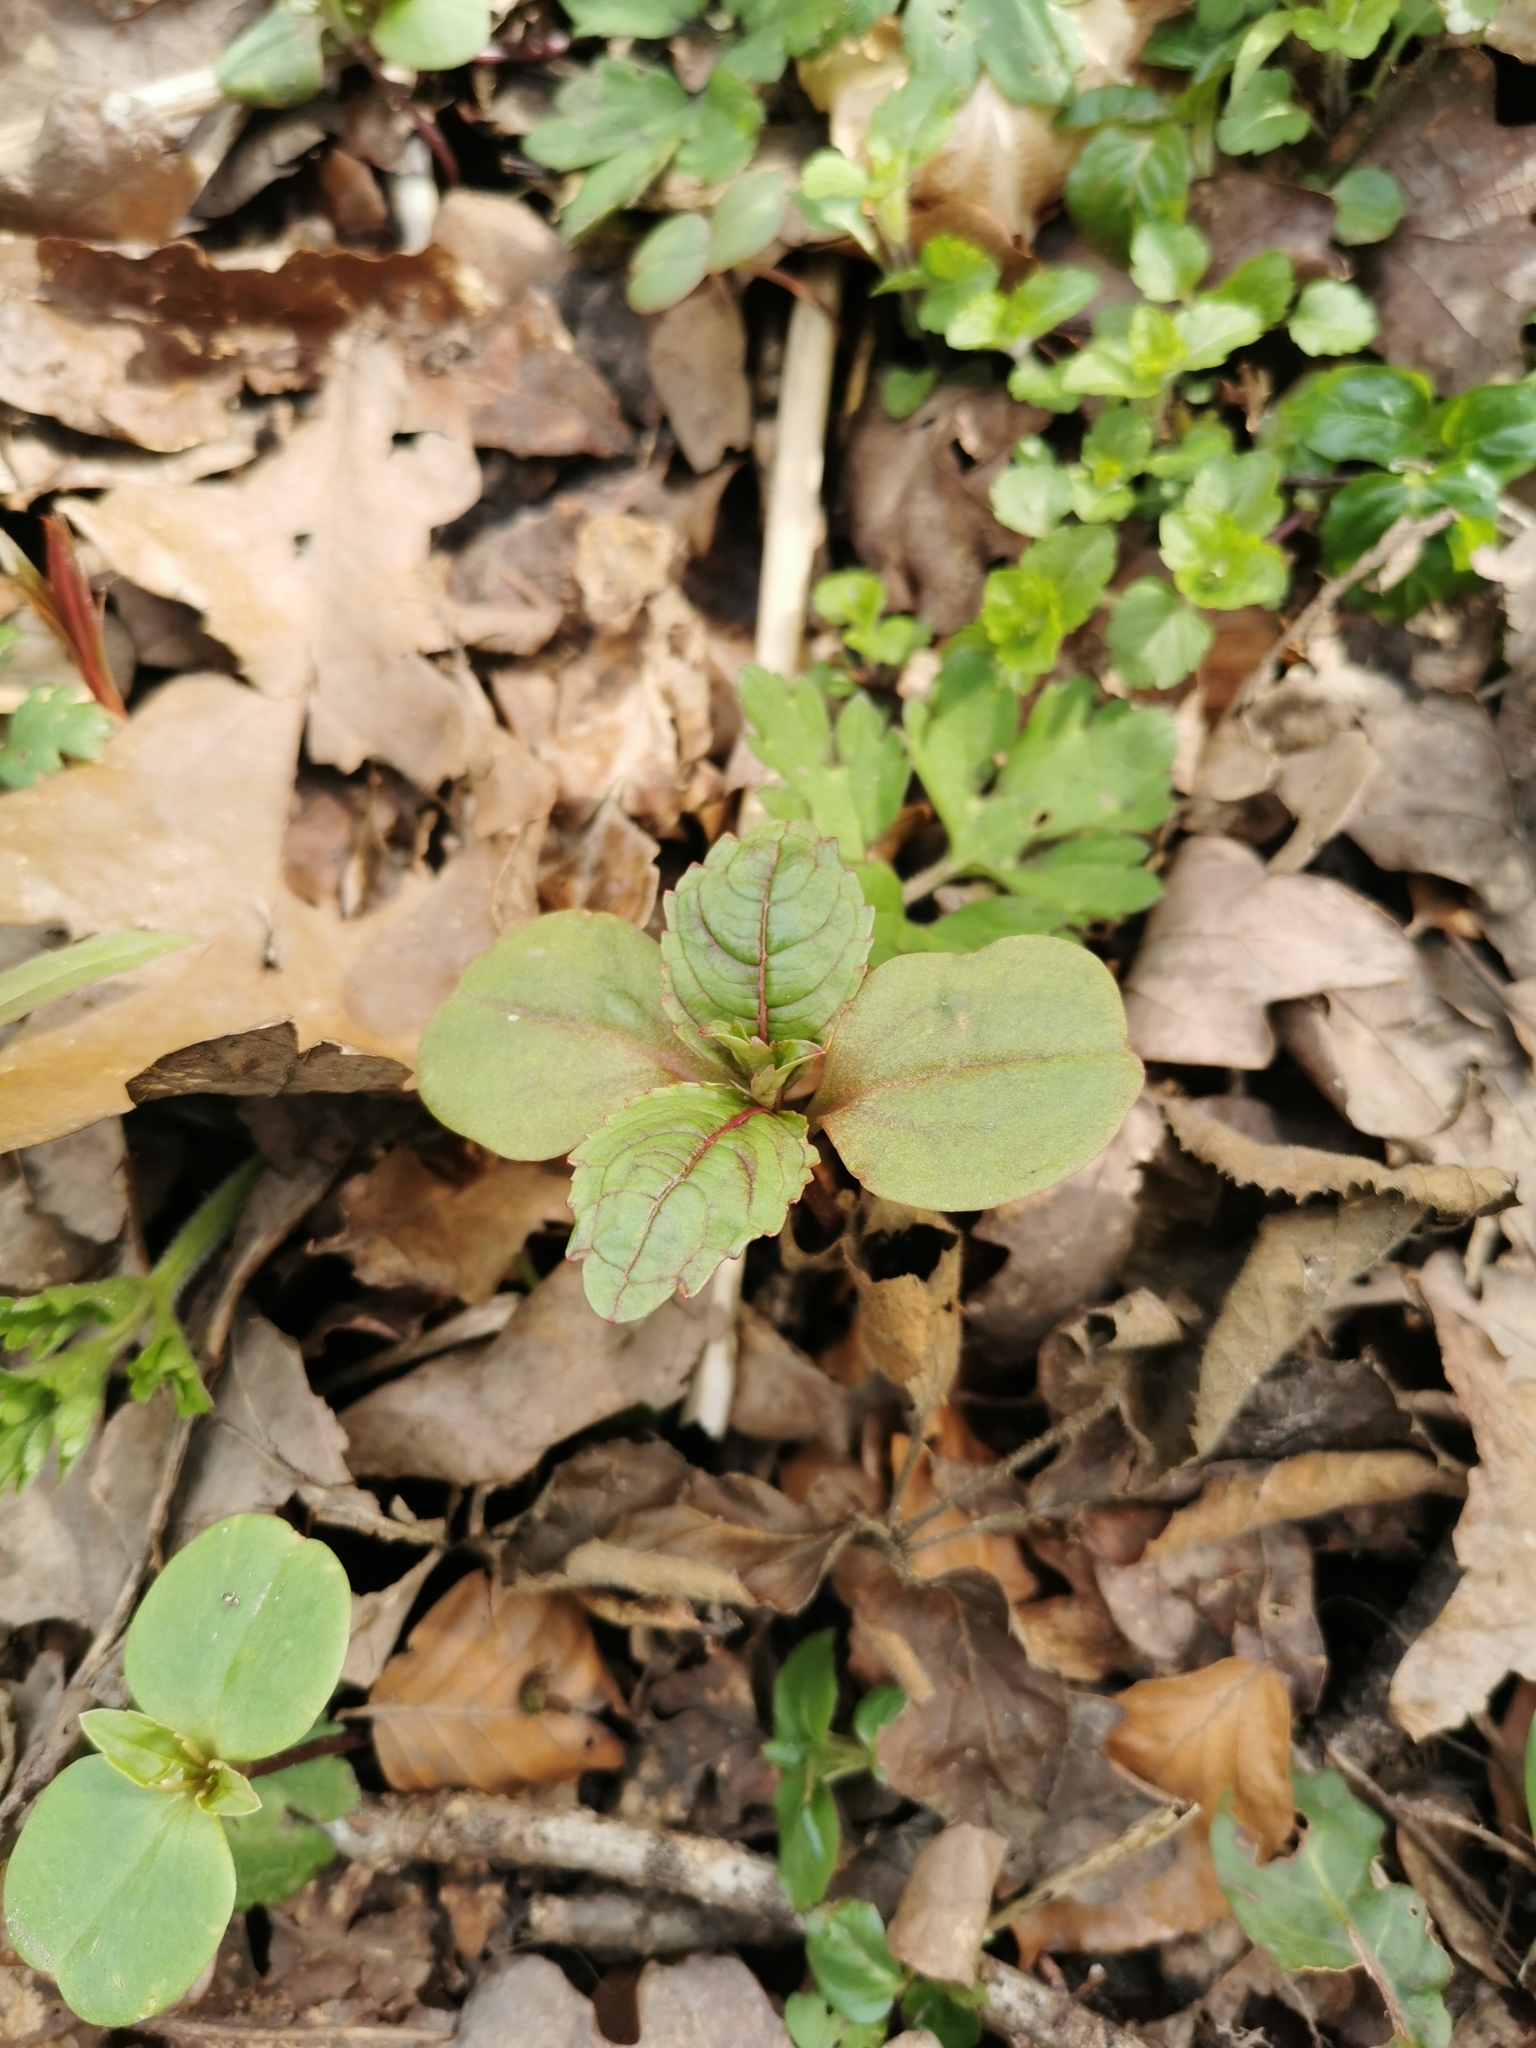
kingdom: Plantae
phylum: Tracheophyta
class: Magnoliopsida
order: Ericales
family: Balsaminaceae
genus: Impatiens
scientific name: Impatiens glandulifera
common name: Himalayan balsam
